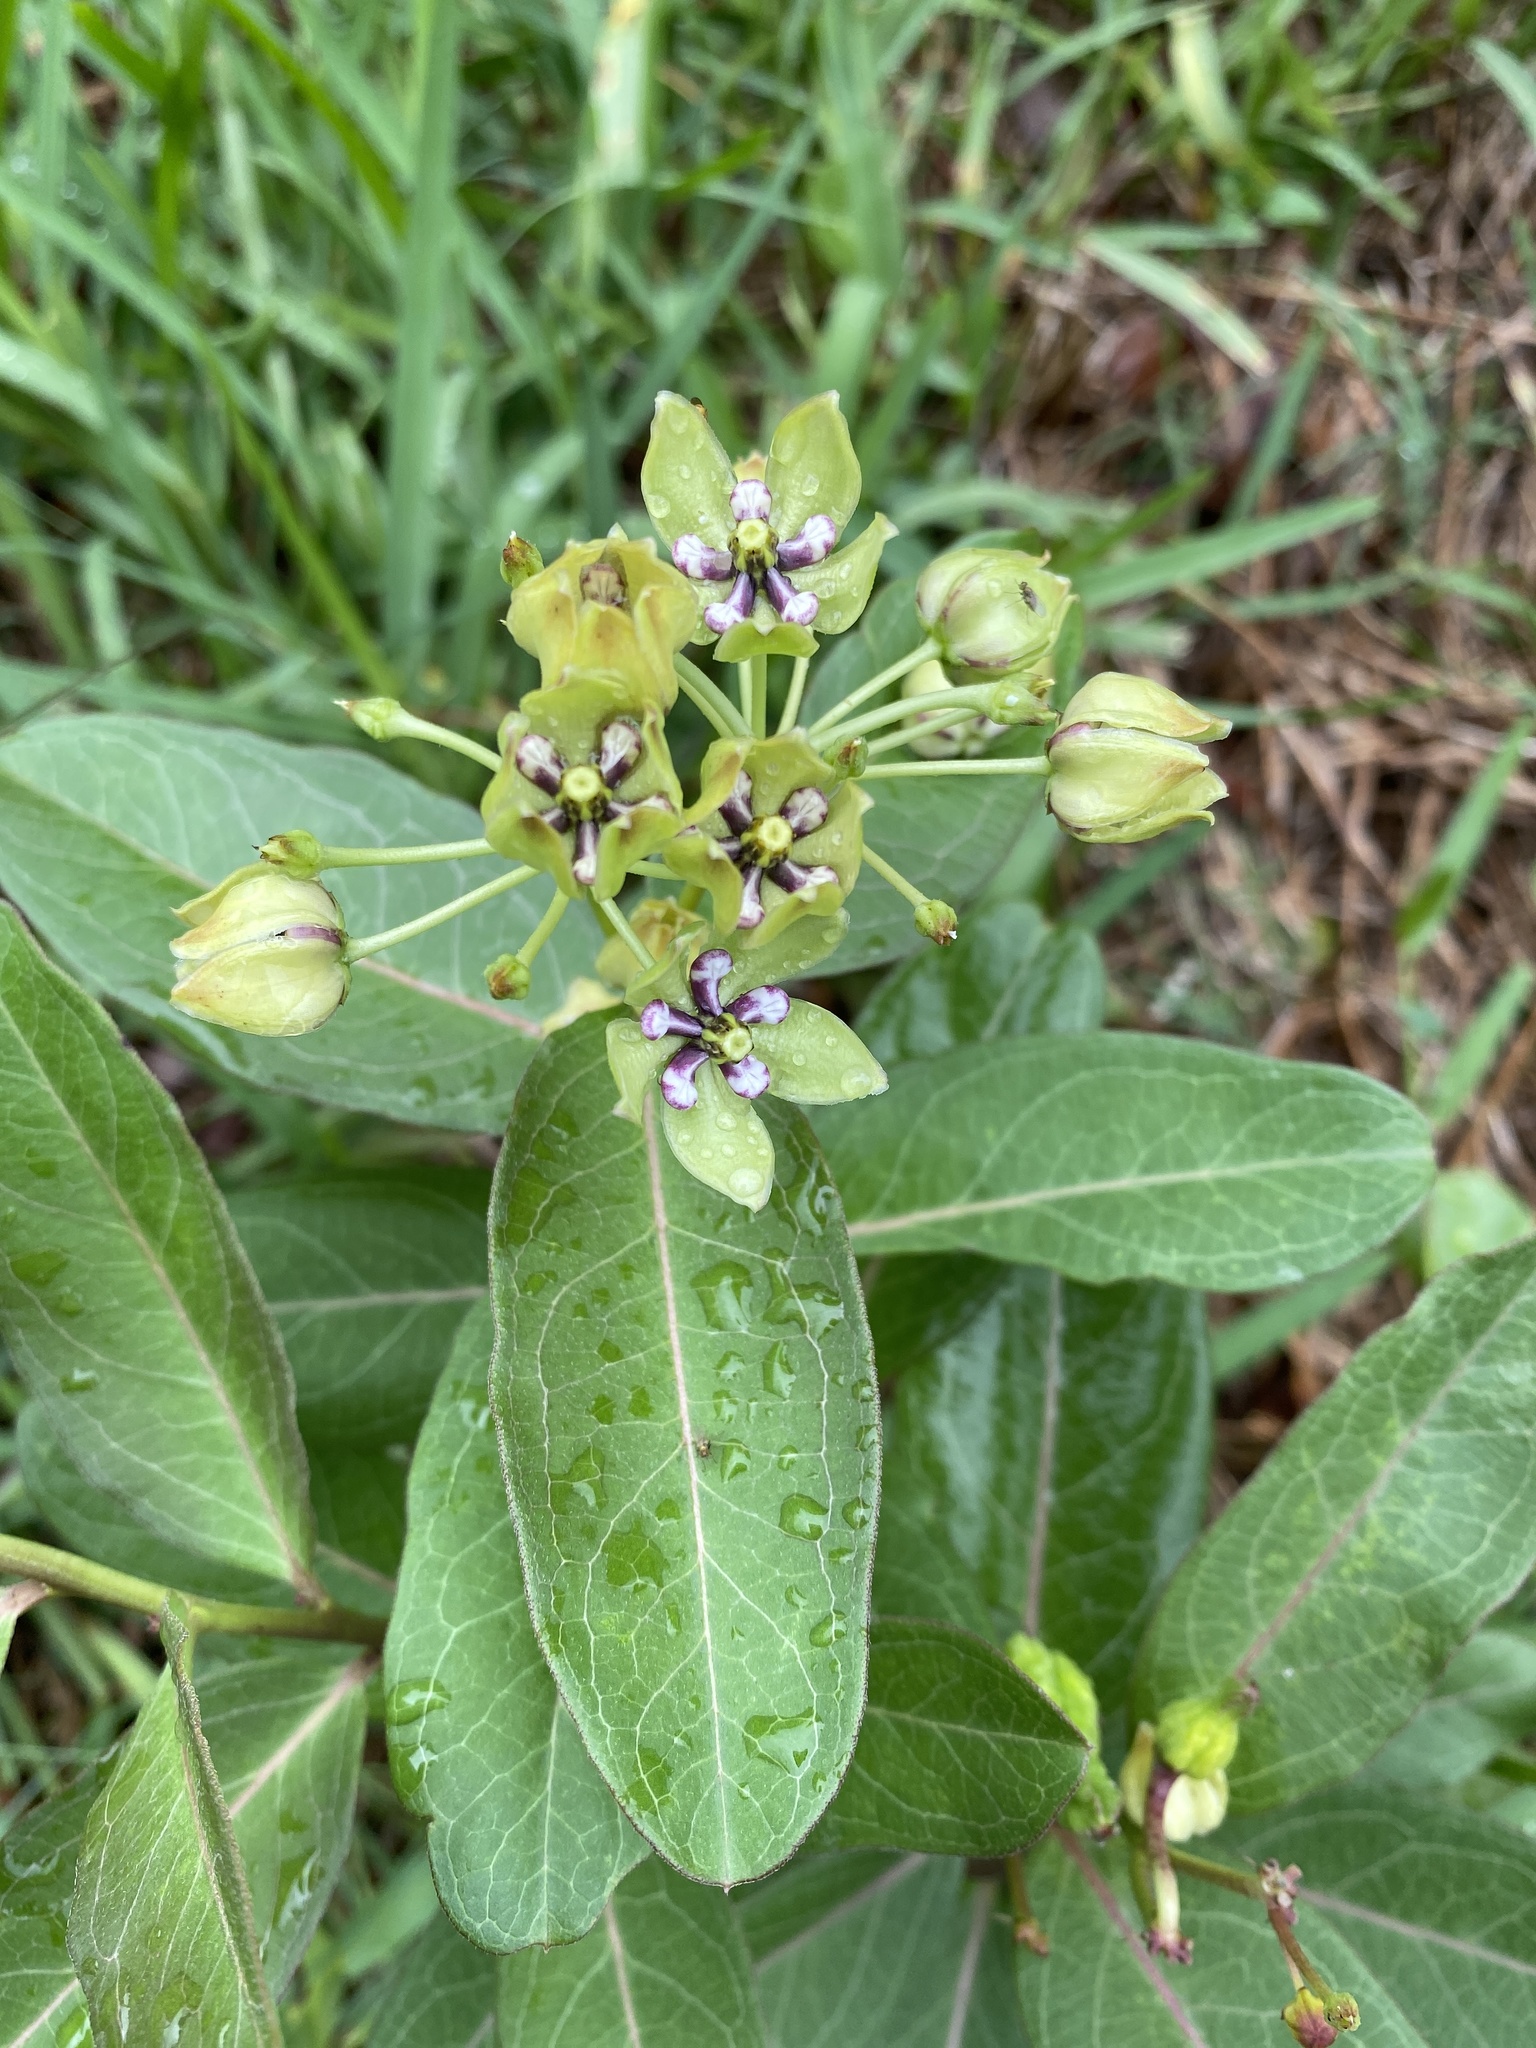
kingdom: Plantae
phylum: Tracheophyta
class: Magnoliopsida
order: Gentianales
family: Apocynaceae
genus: Asclepias
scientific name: Asclepias viridis
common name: Antelope-horns
